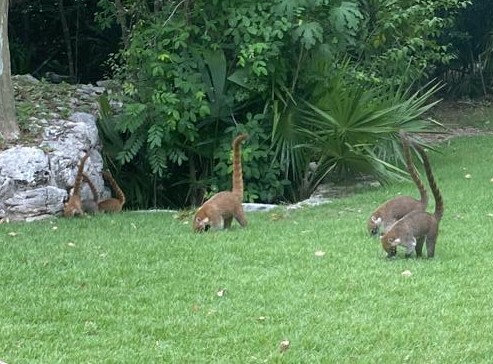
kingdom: Animalia
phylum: Chordata
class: Mammalia
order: Carnivora
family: Procyonidae
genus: Nasua
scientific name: Nasua narica
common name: White-nosed coati
